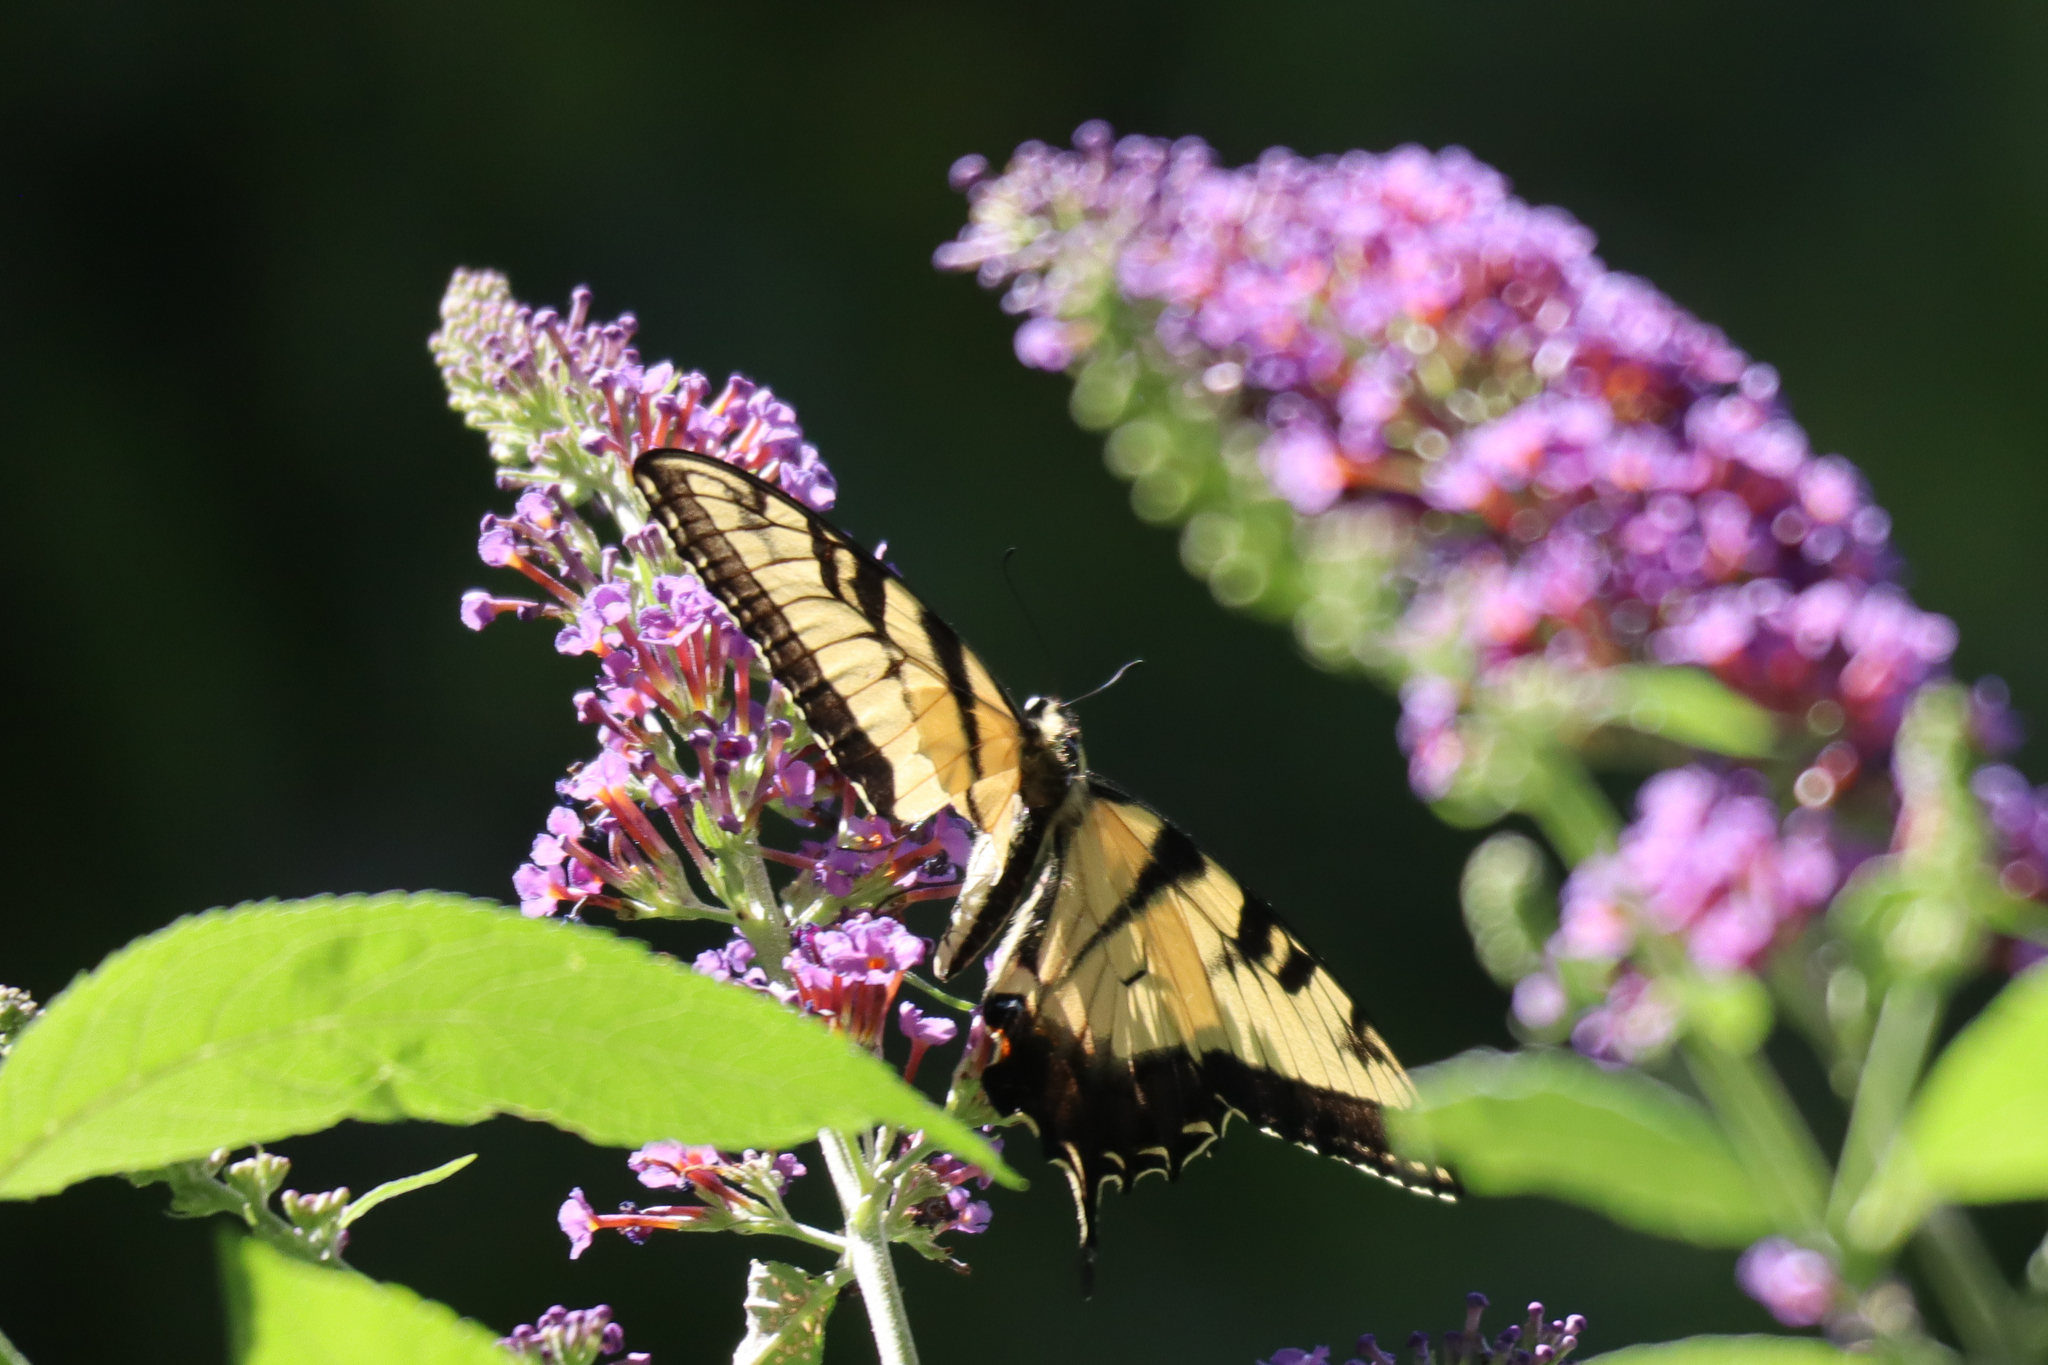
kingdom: Animalia
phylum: Arthropoda
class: Insecta
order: Lepidoptera
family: Papilionidae
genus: Papilio
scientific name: Papilio glaucus
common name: Tiger swallowtail
